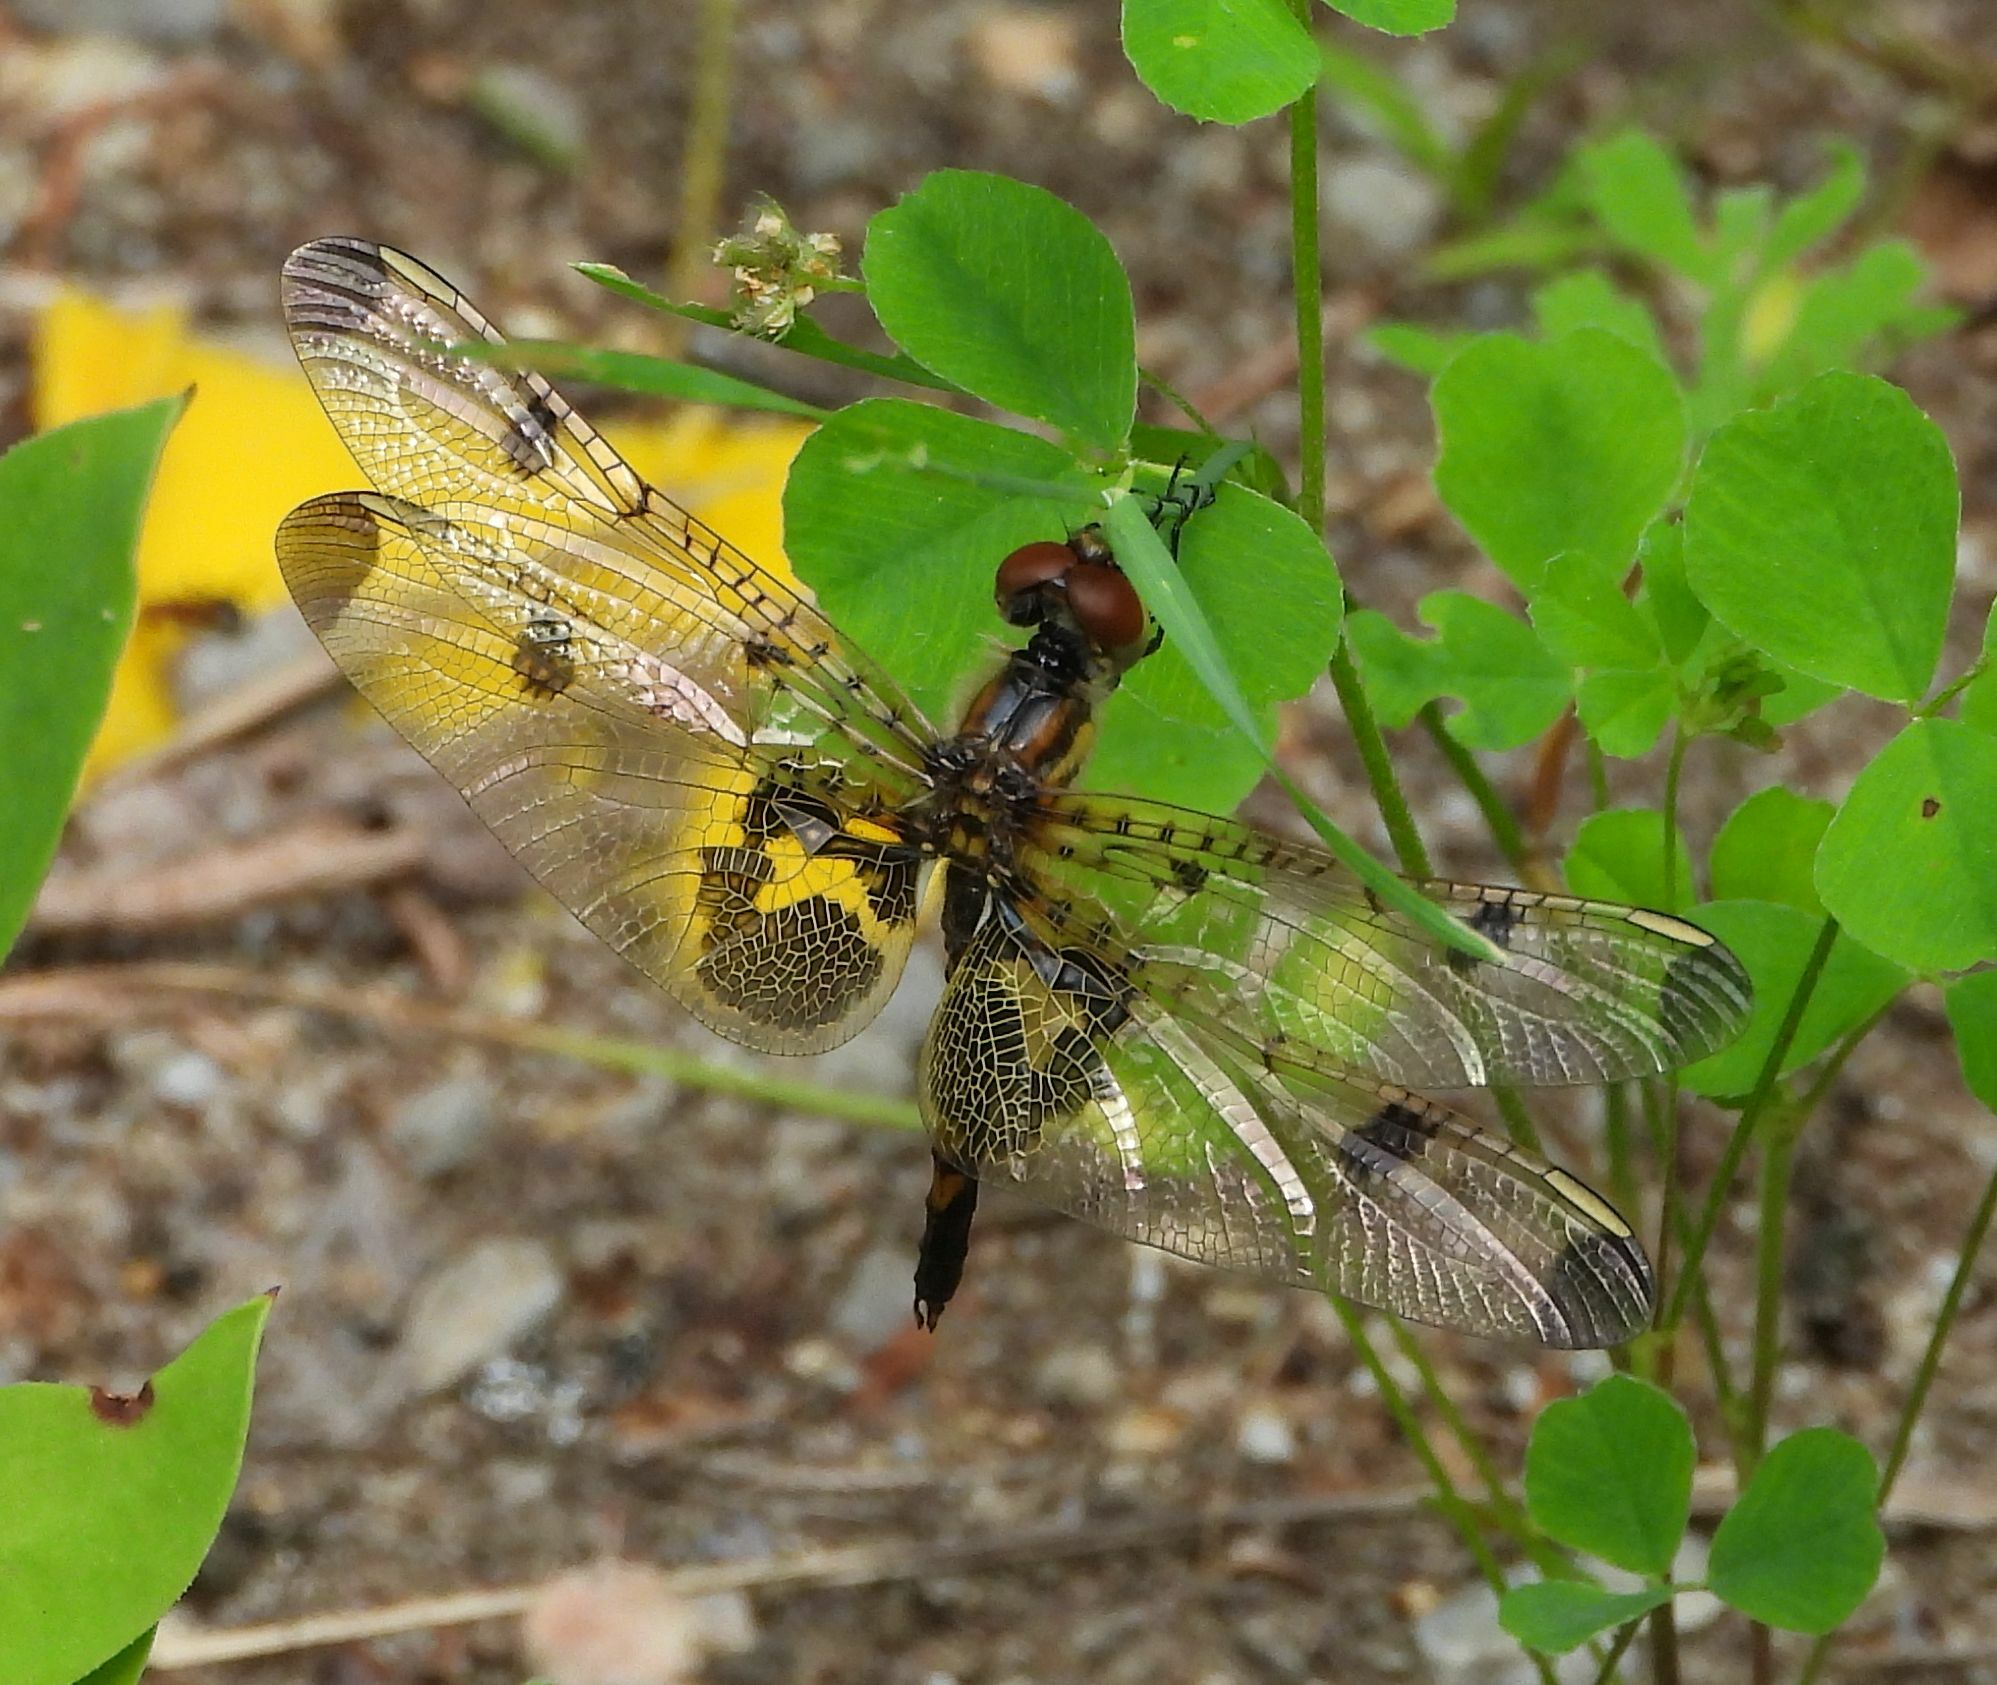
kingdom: Animalia
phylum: Arthropoda
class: Insecta
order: Odonata
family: Libellulidae
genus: Celithemis
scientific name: Celithemis elisa
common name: Calico pennant
